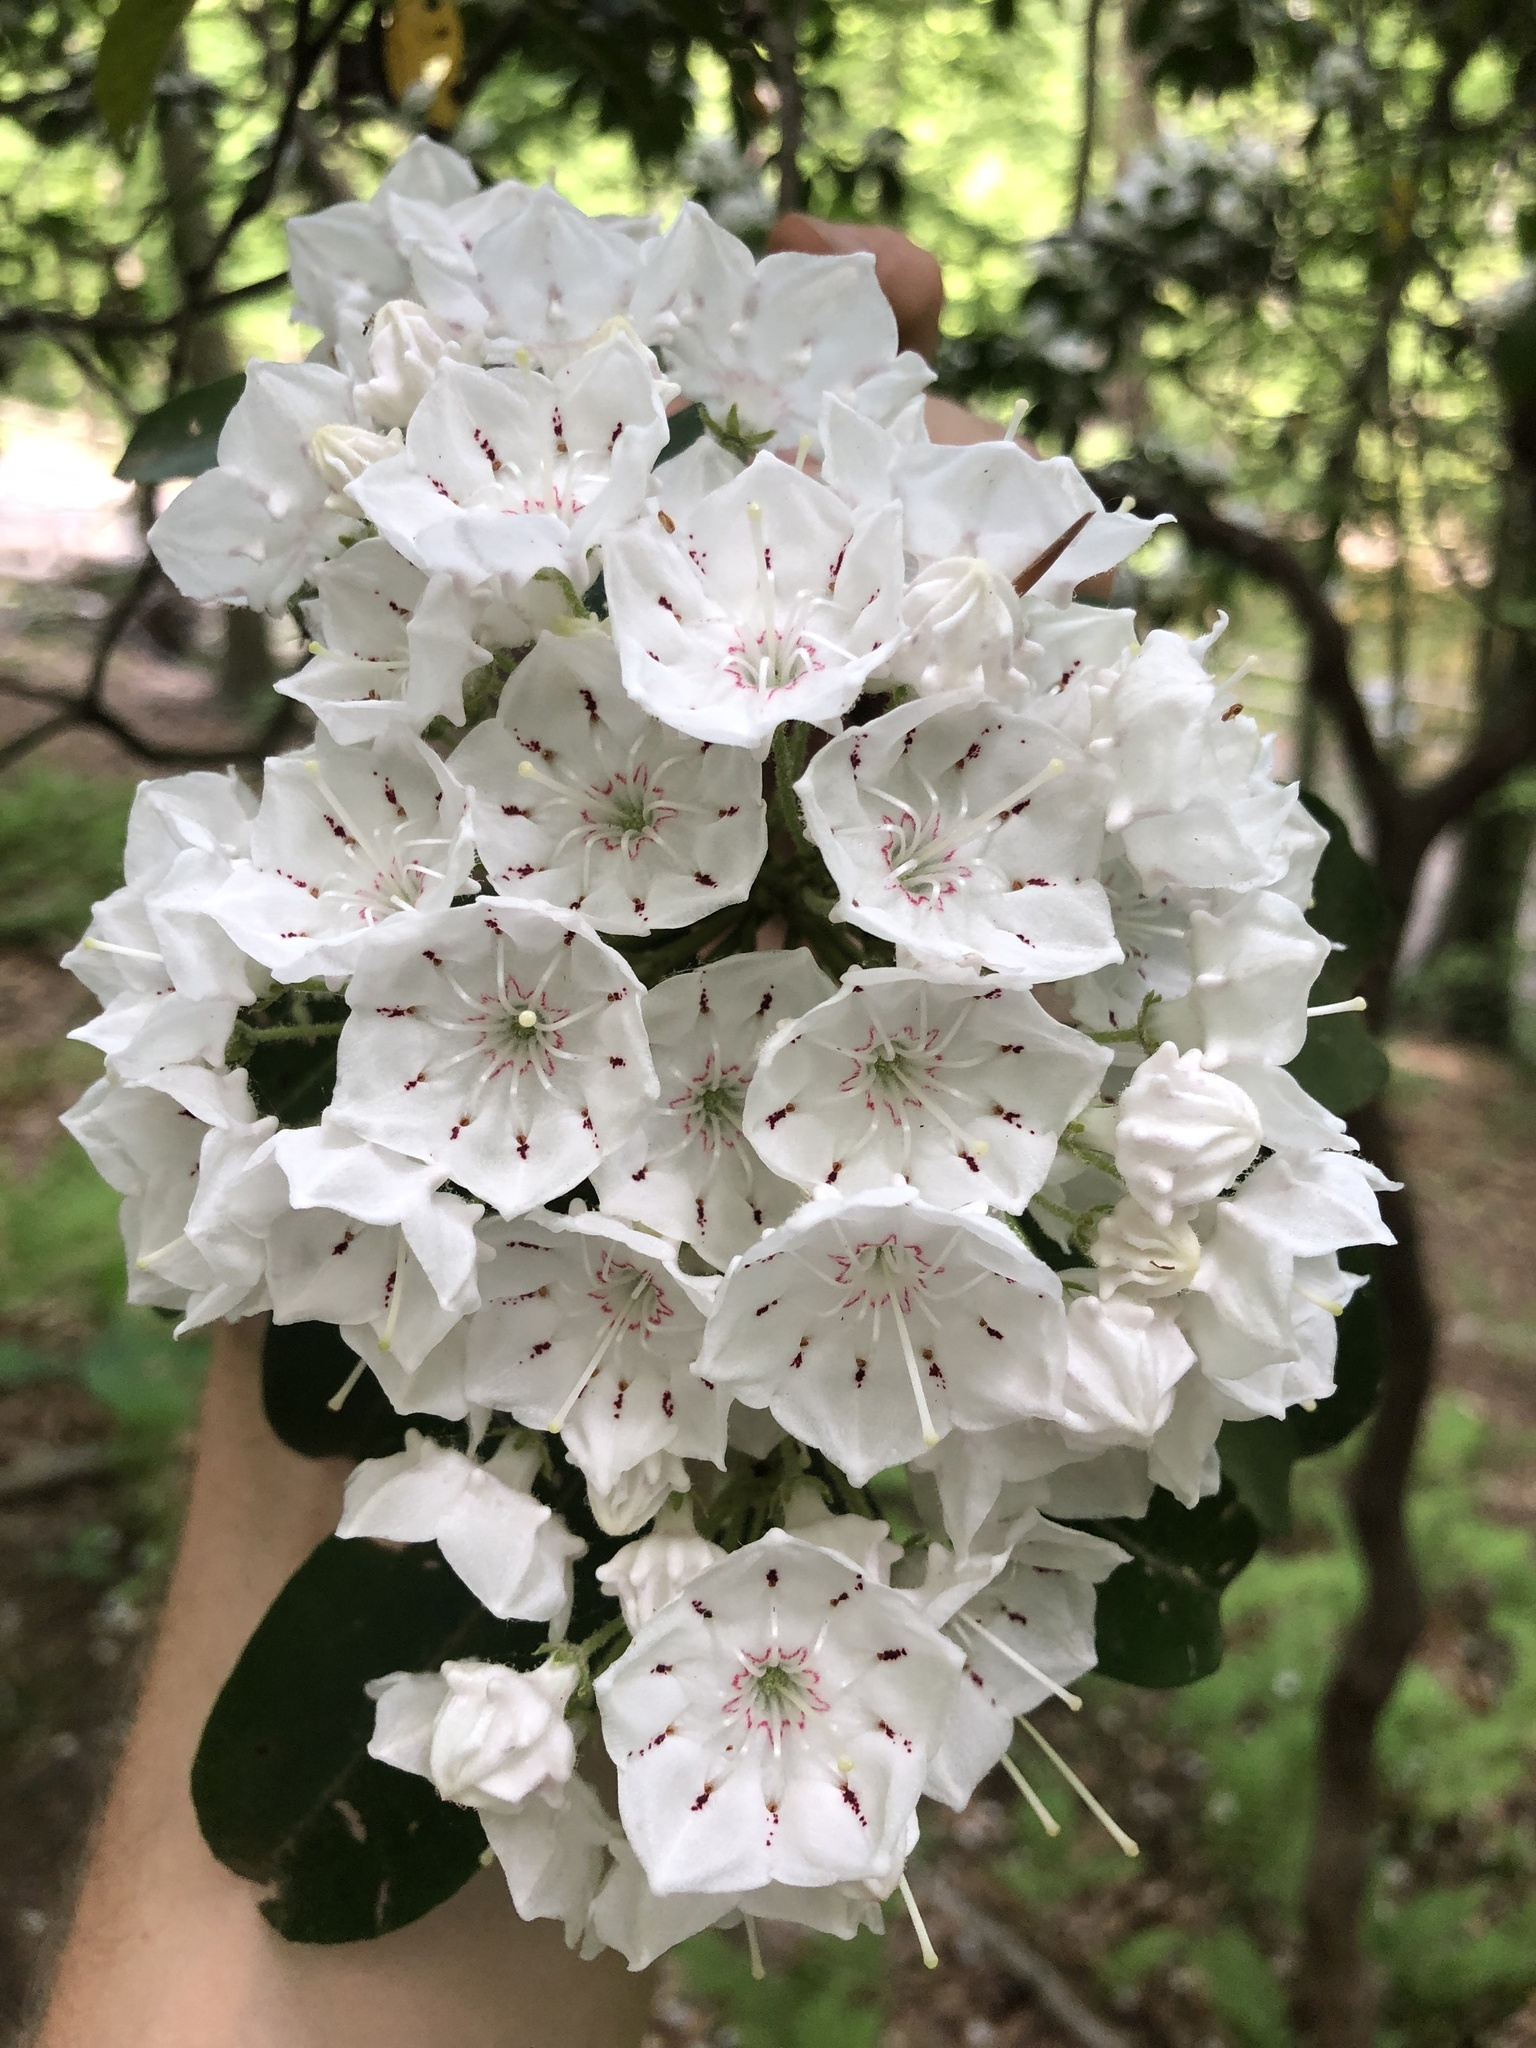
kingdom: Plantae
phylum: Tracheophyta
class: Magnoliopsida
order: Ericales
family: Ericaceae
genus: Kalmia
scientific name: Kalmia latifolia
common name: Mountain-laurel
